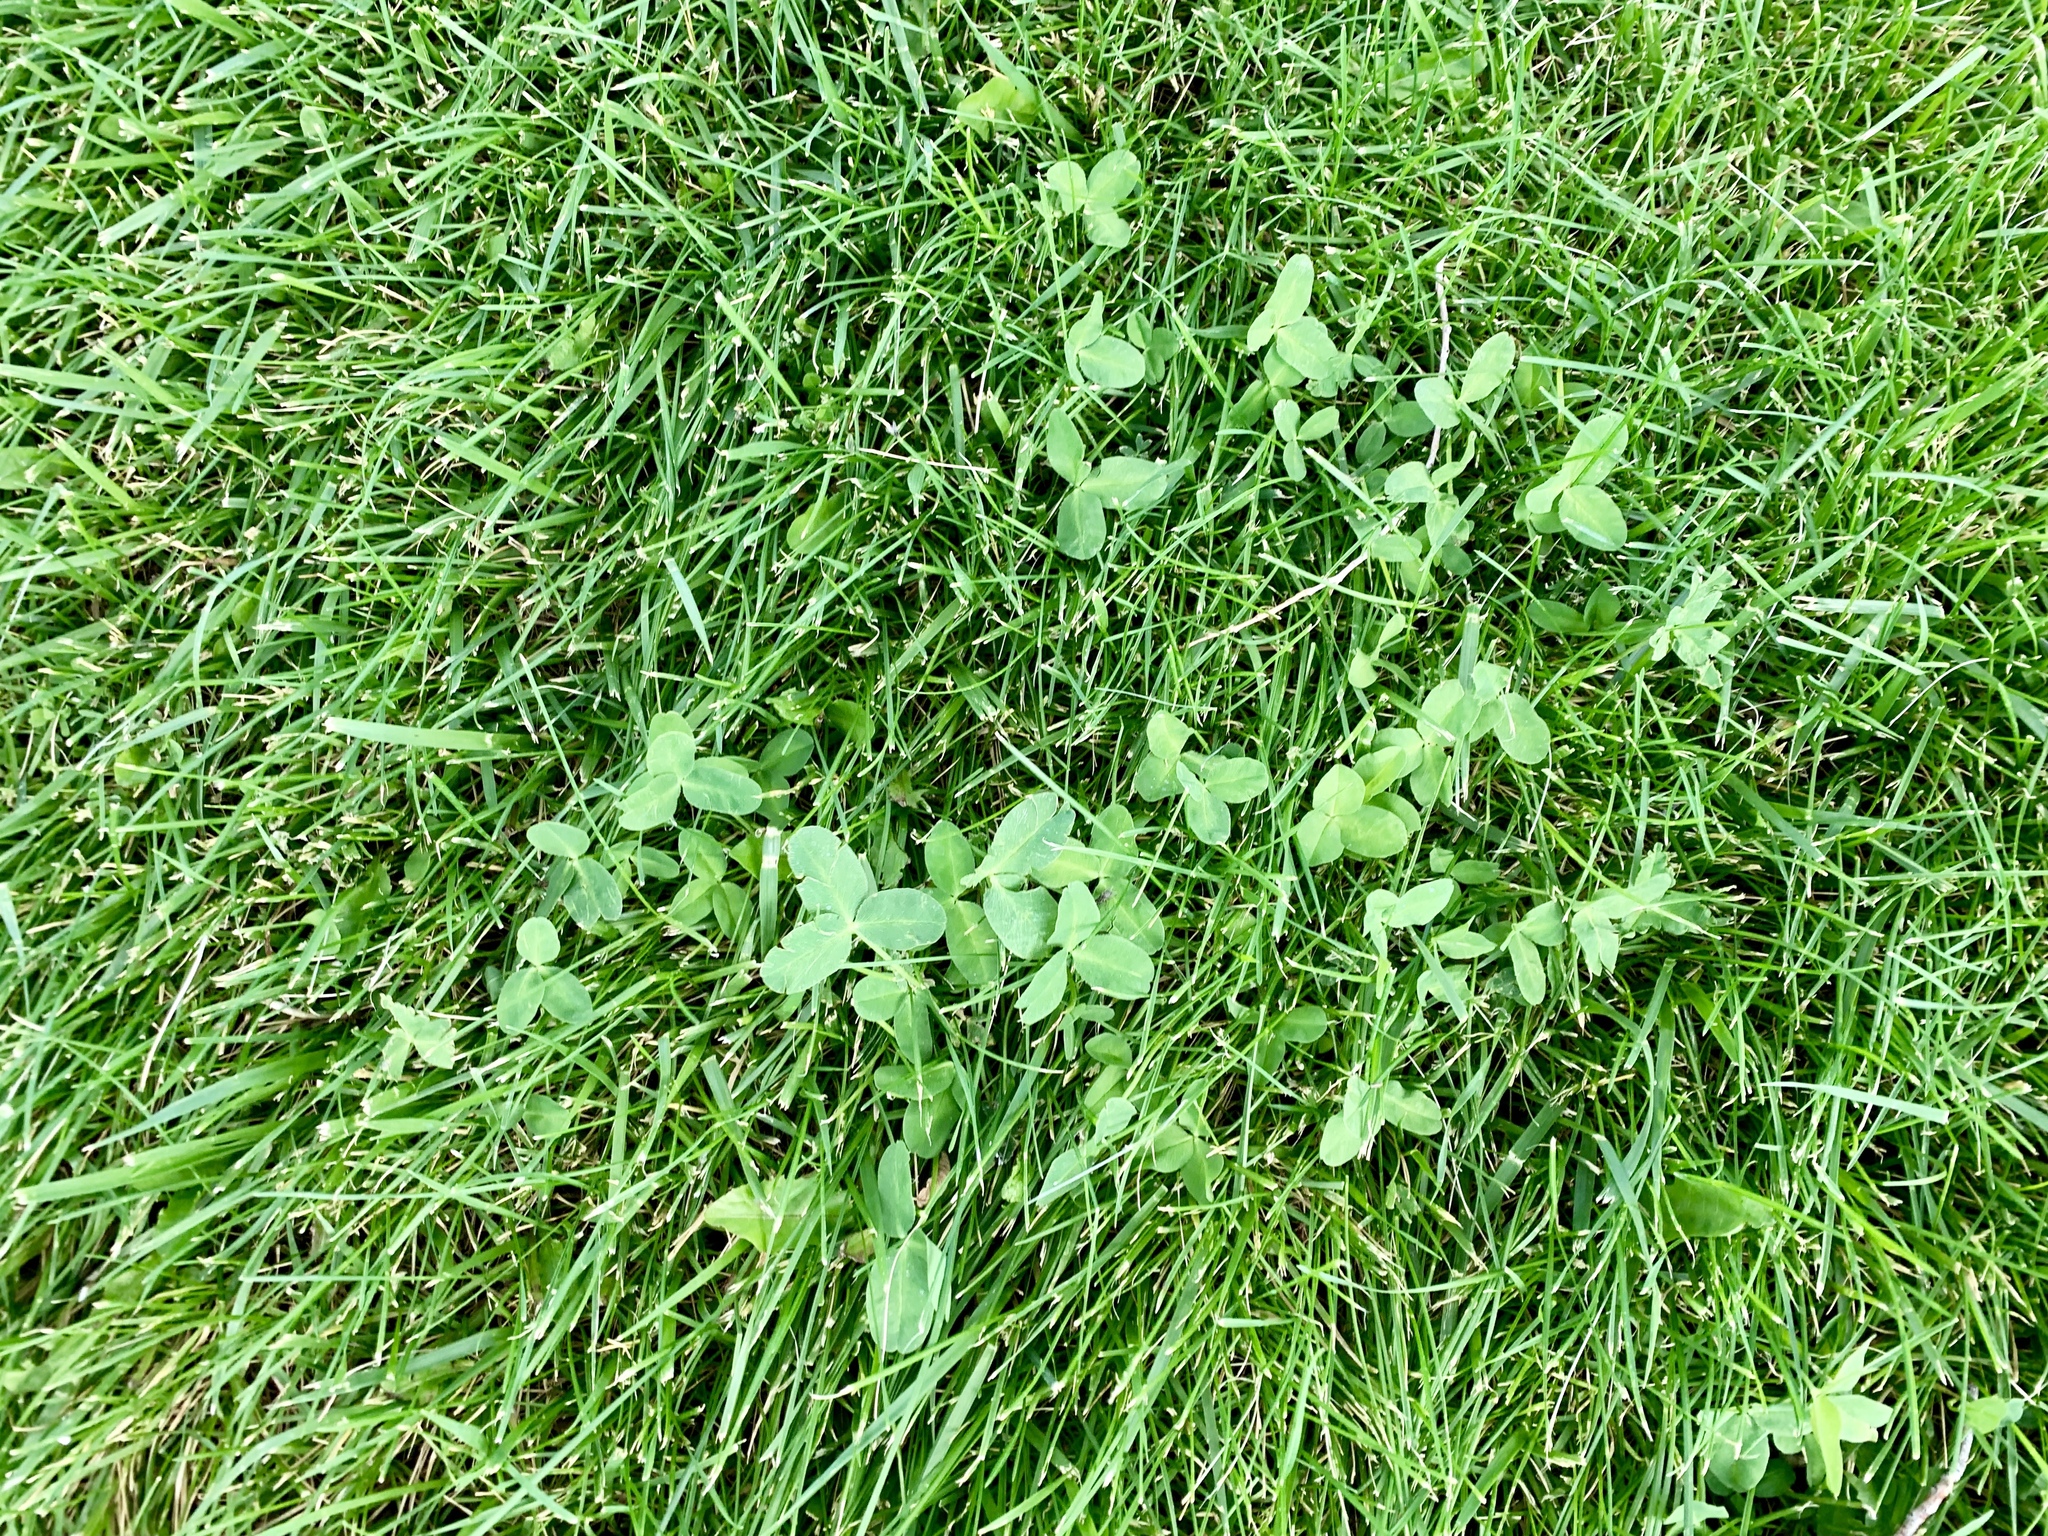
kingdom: Plantae
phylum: Tracheophyta
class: Magnoliopsida
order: Fabales
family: Fabaceae
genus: Trifolium
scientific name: Trifolium repens
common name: White clover
